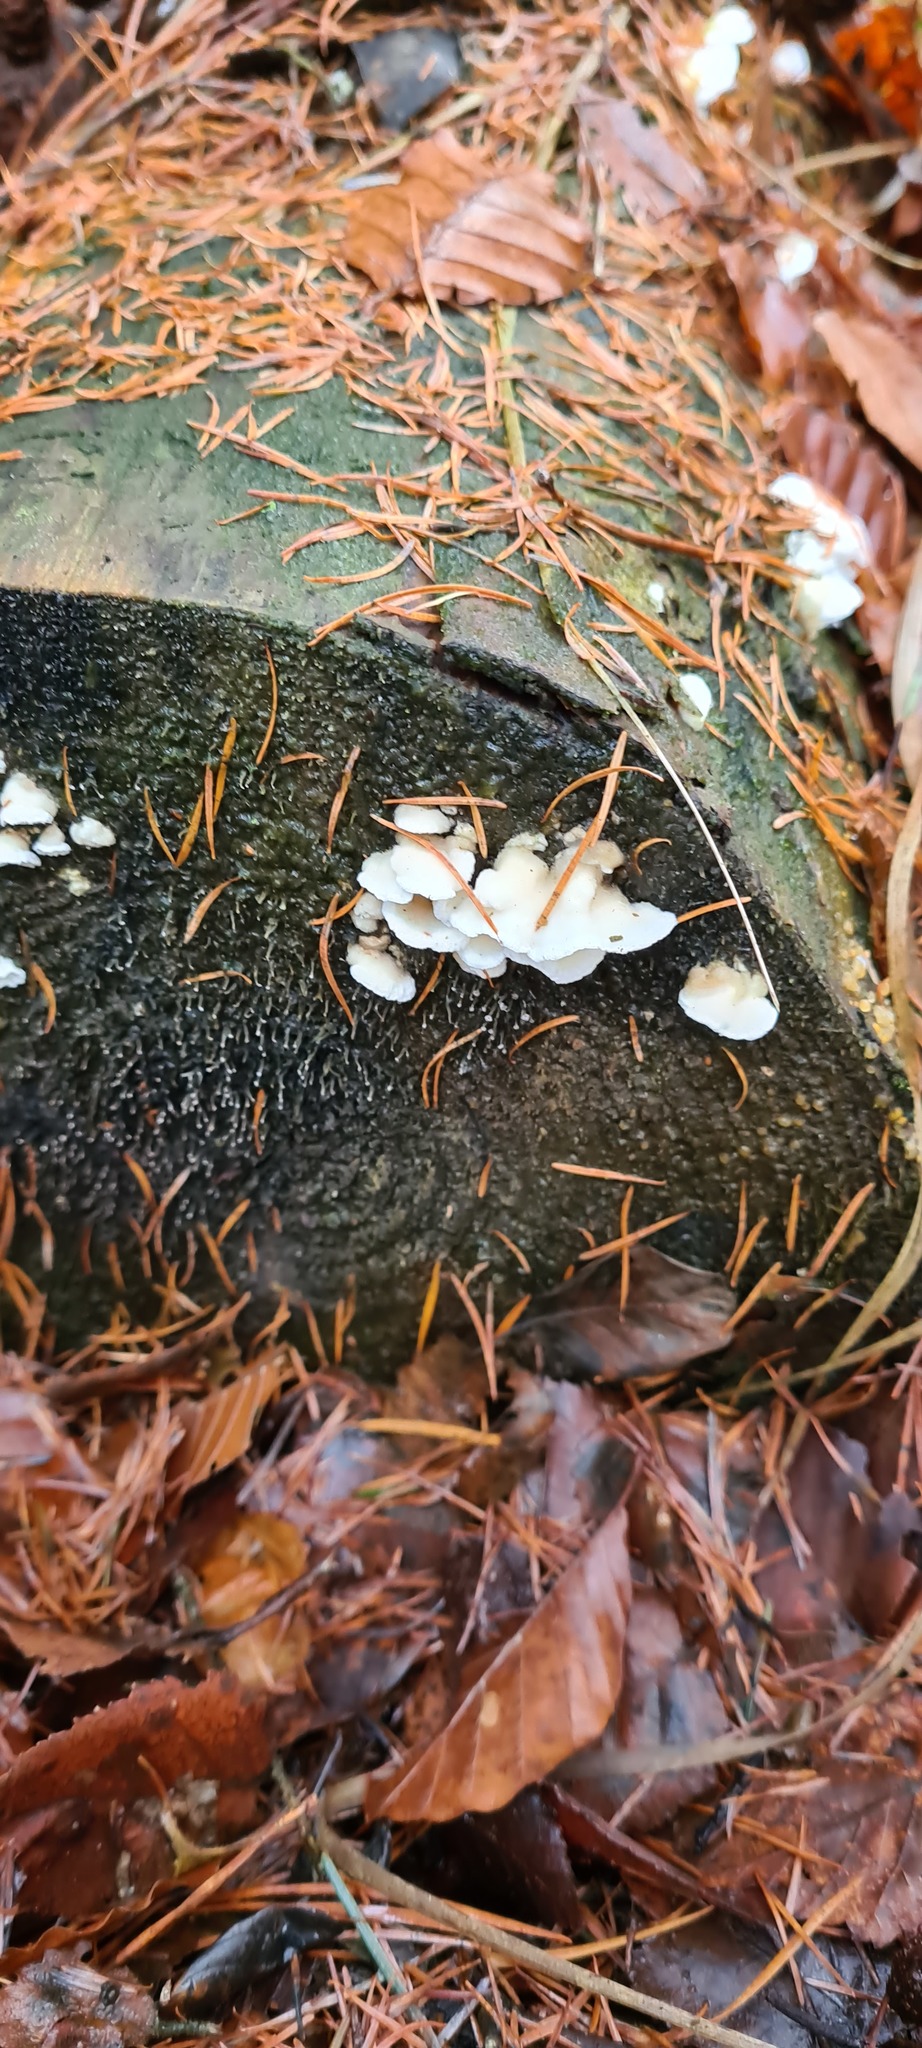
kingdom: Fungi
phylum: Basidiomycota
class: Agaricomycetes
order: Polyporales
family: Incrustoporiaceae
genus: Skeletocutis
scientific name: Skeletocutis amorpha
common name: Rusty crust
